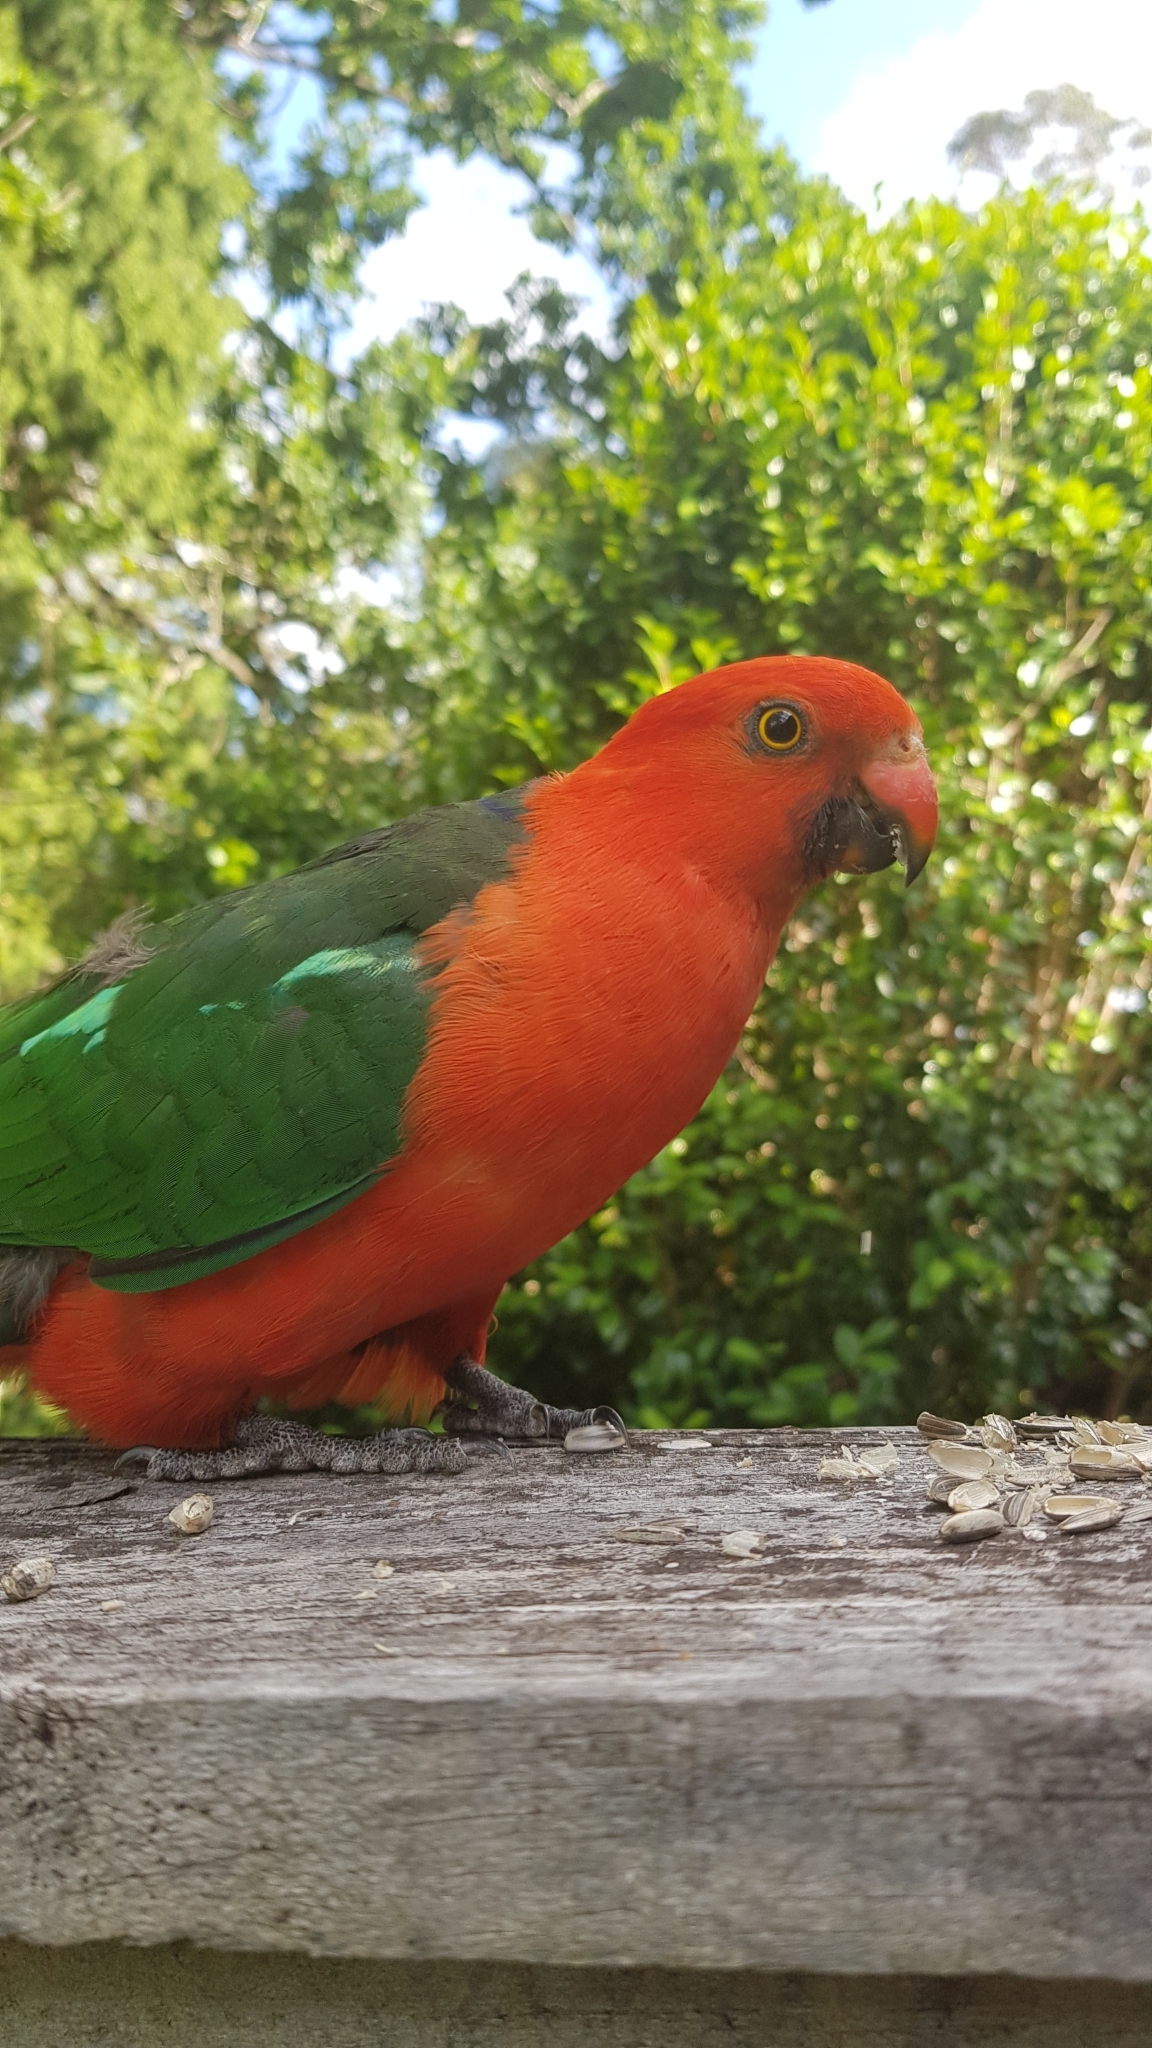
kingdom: Animalia
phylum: Chordata
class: Aves
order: Psittaciformes
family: Psittacidae
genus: Alisterus
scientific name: Alisterus scapularis
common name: Australian king parrot
